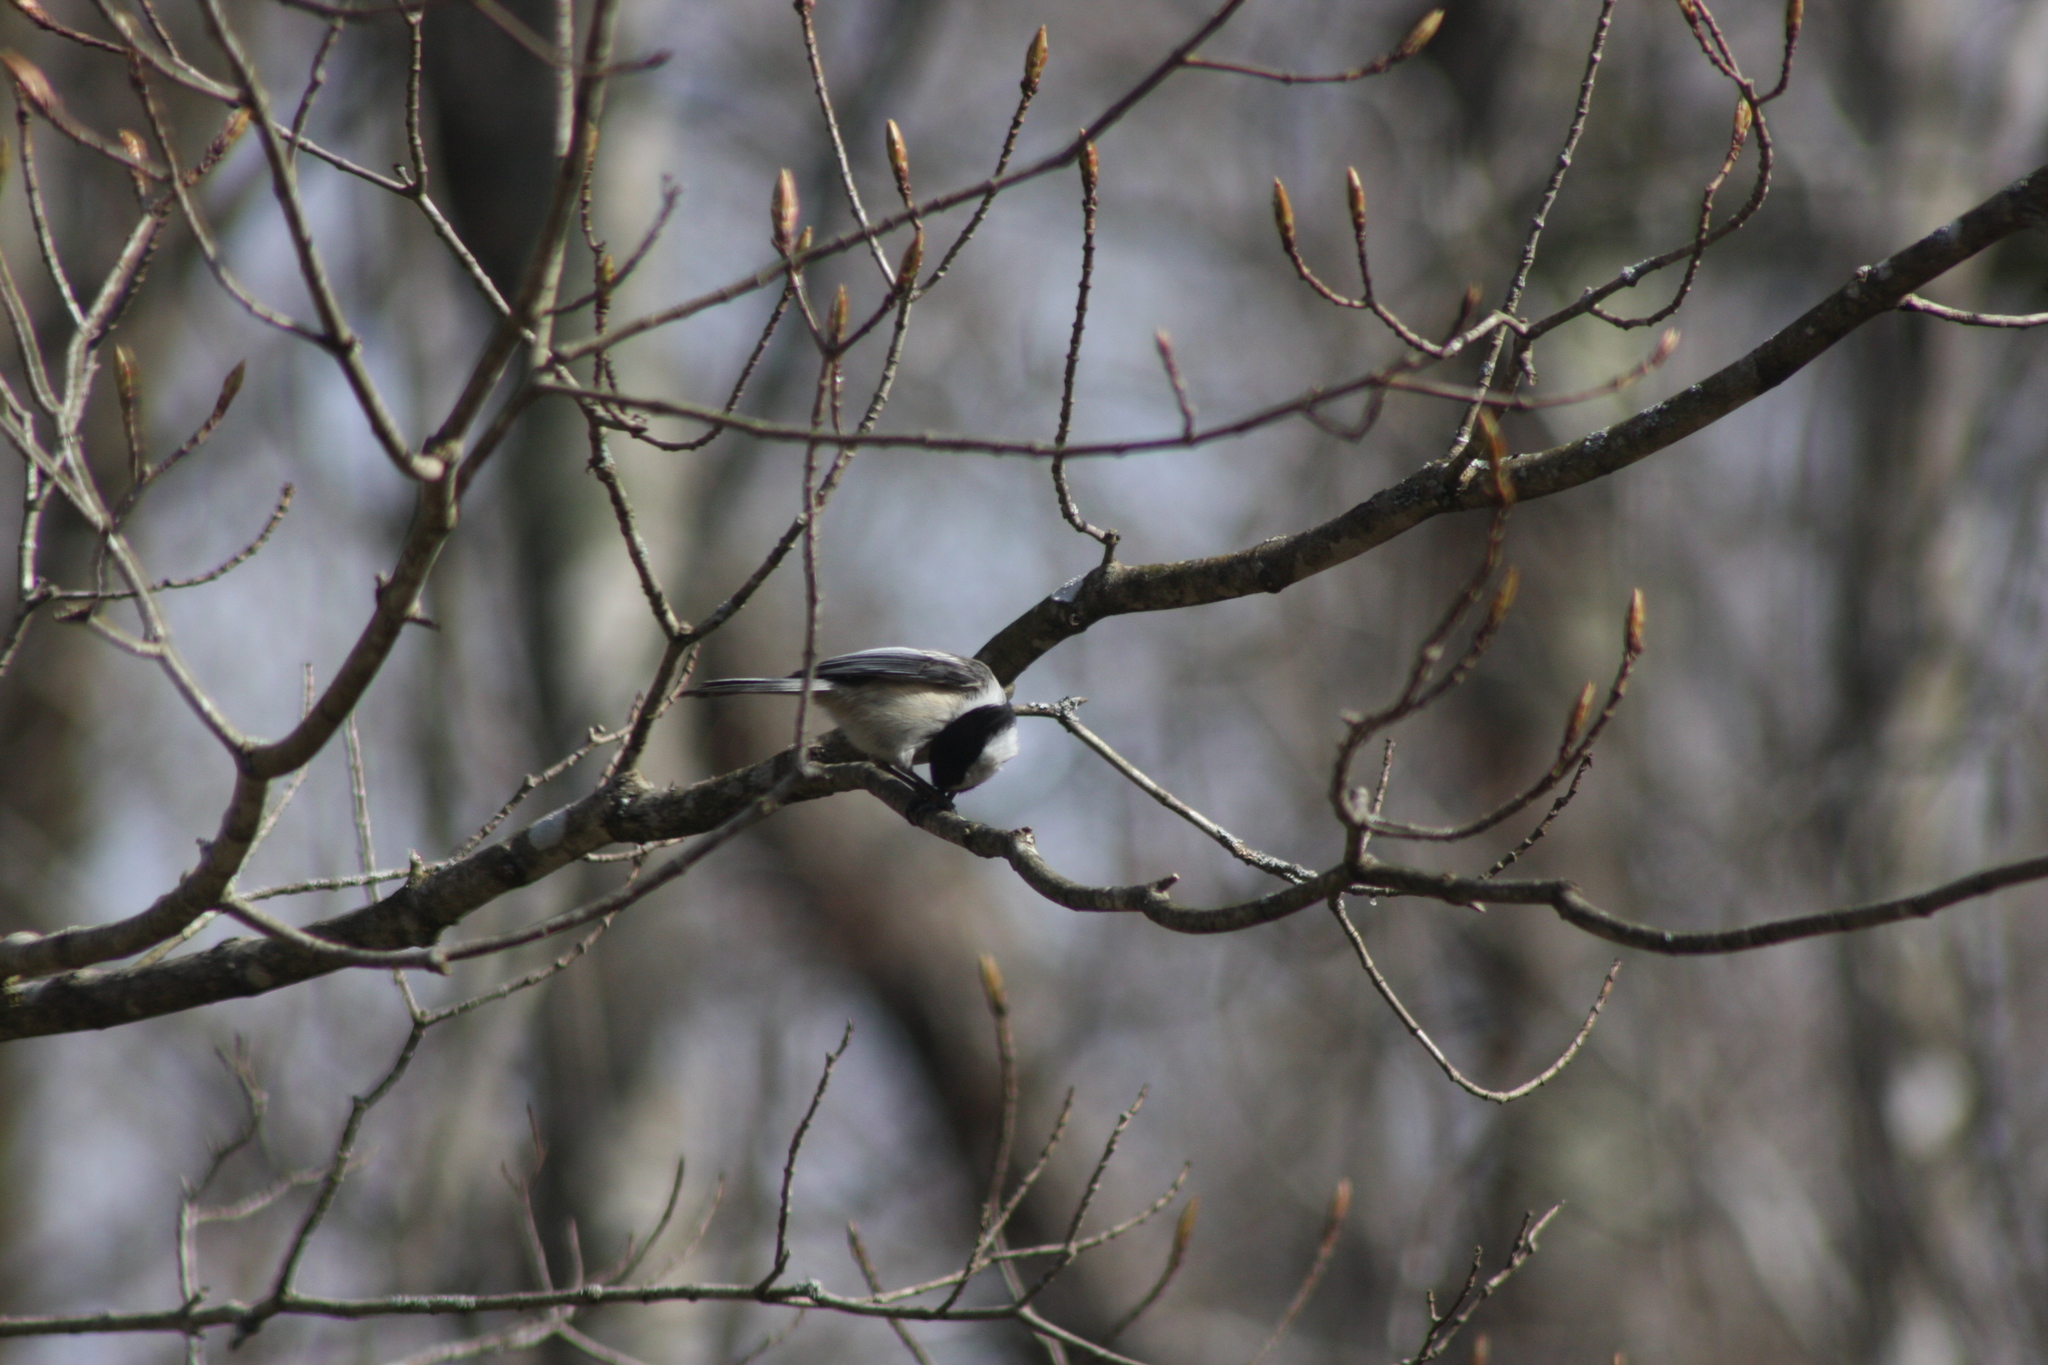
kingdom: Animalia
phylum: Chordata
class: Aves
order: Passeriformes
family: Paridae
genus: Poecile
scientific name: Poecile atricapillus
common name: Black-capped chickadee
